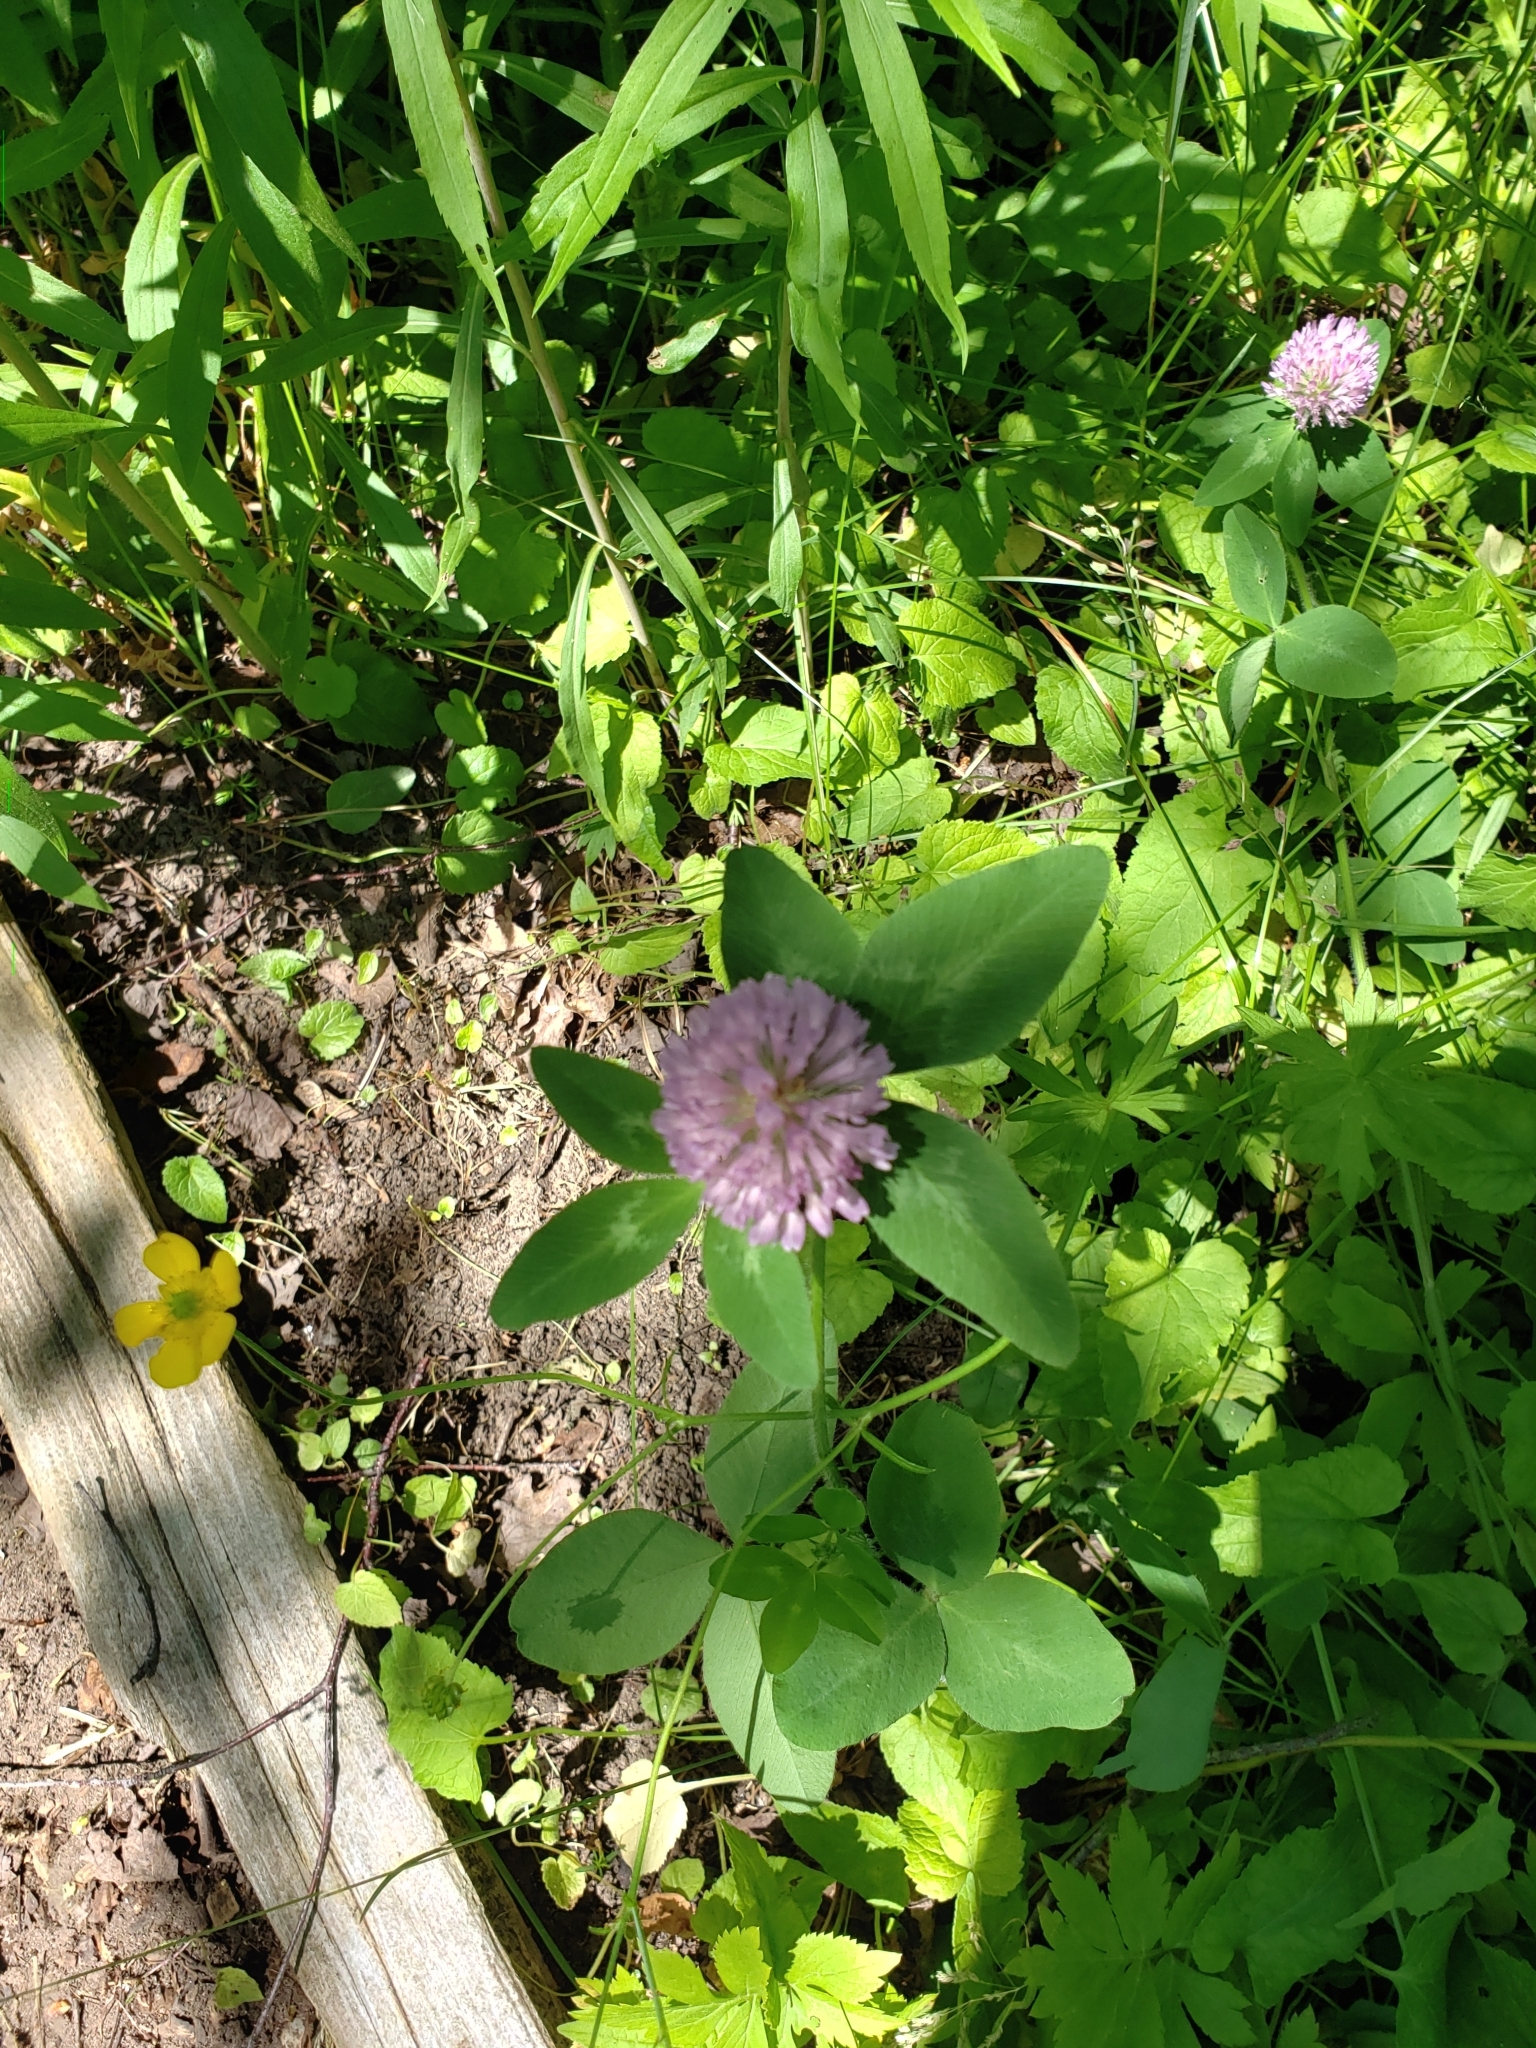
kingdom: Plantae
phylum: Tracheophyta
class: Magnoliopsida
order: Fabales
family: Fabaceae
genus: Trifolium
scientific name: Trifolium pratense
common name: Red clover
